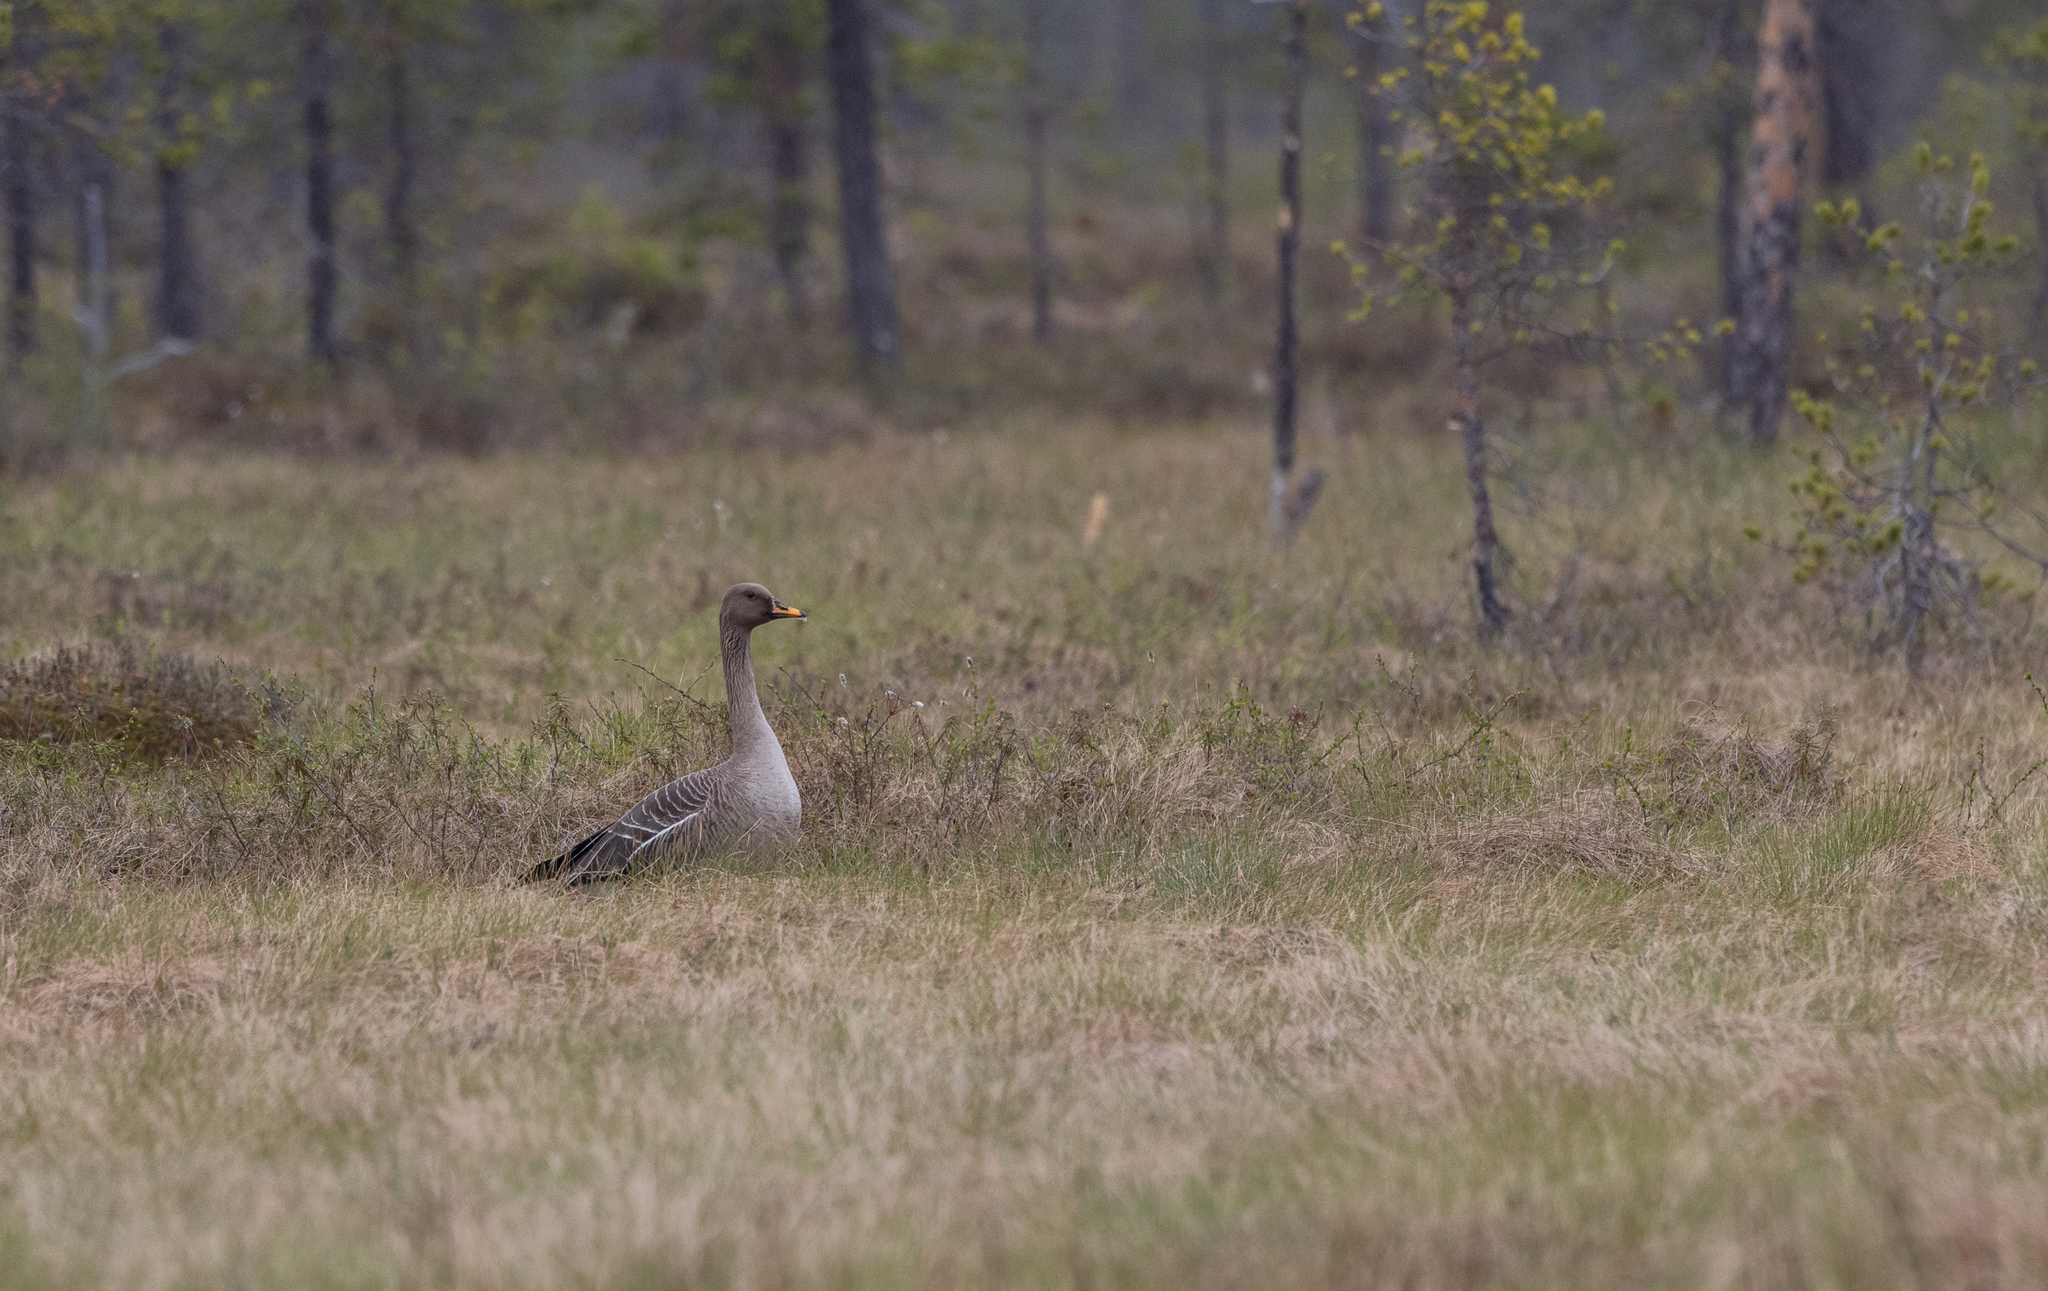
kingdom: Animalia
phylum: Chordata
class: Aves
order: Anseriformes
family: Anatidae
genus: Anser
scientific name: Anser fabalis
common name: Bean goose
